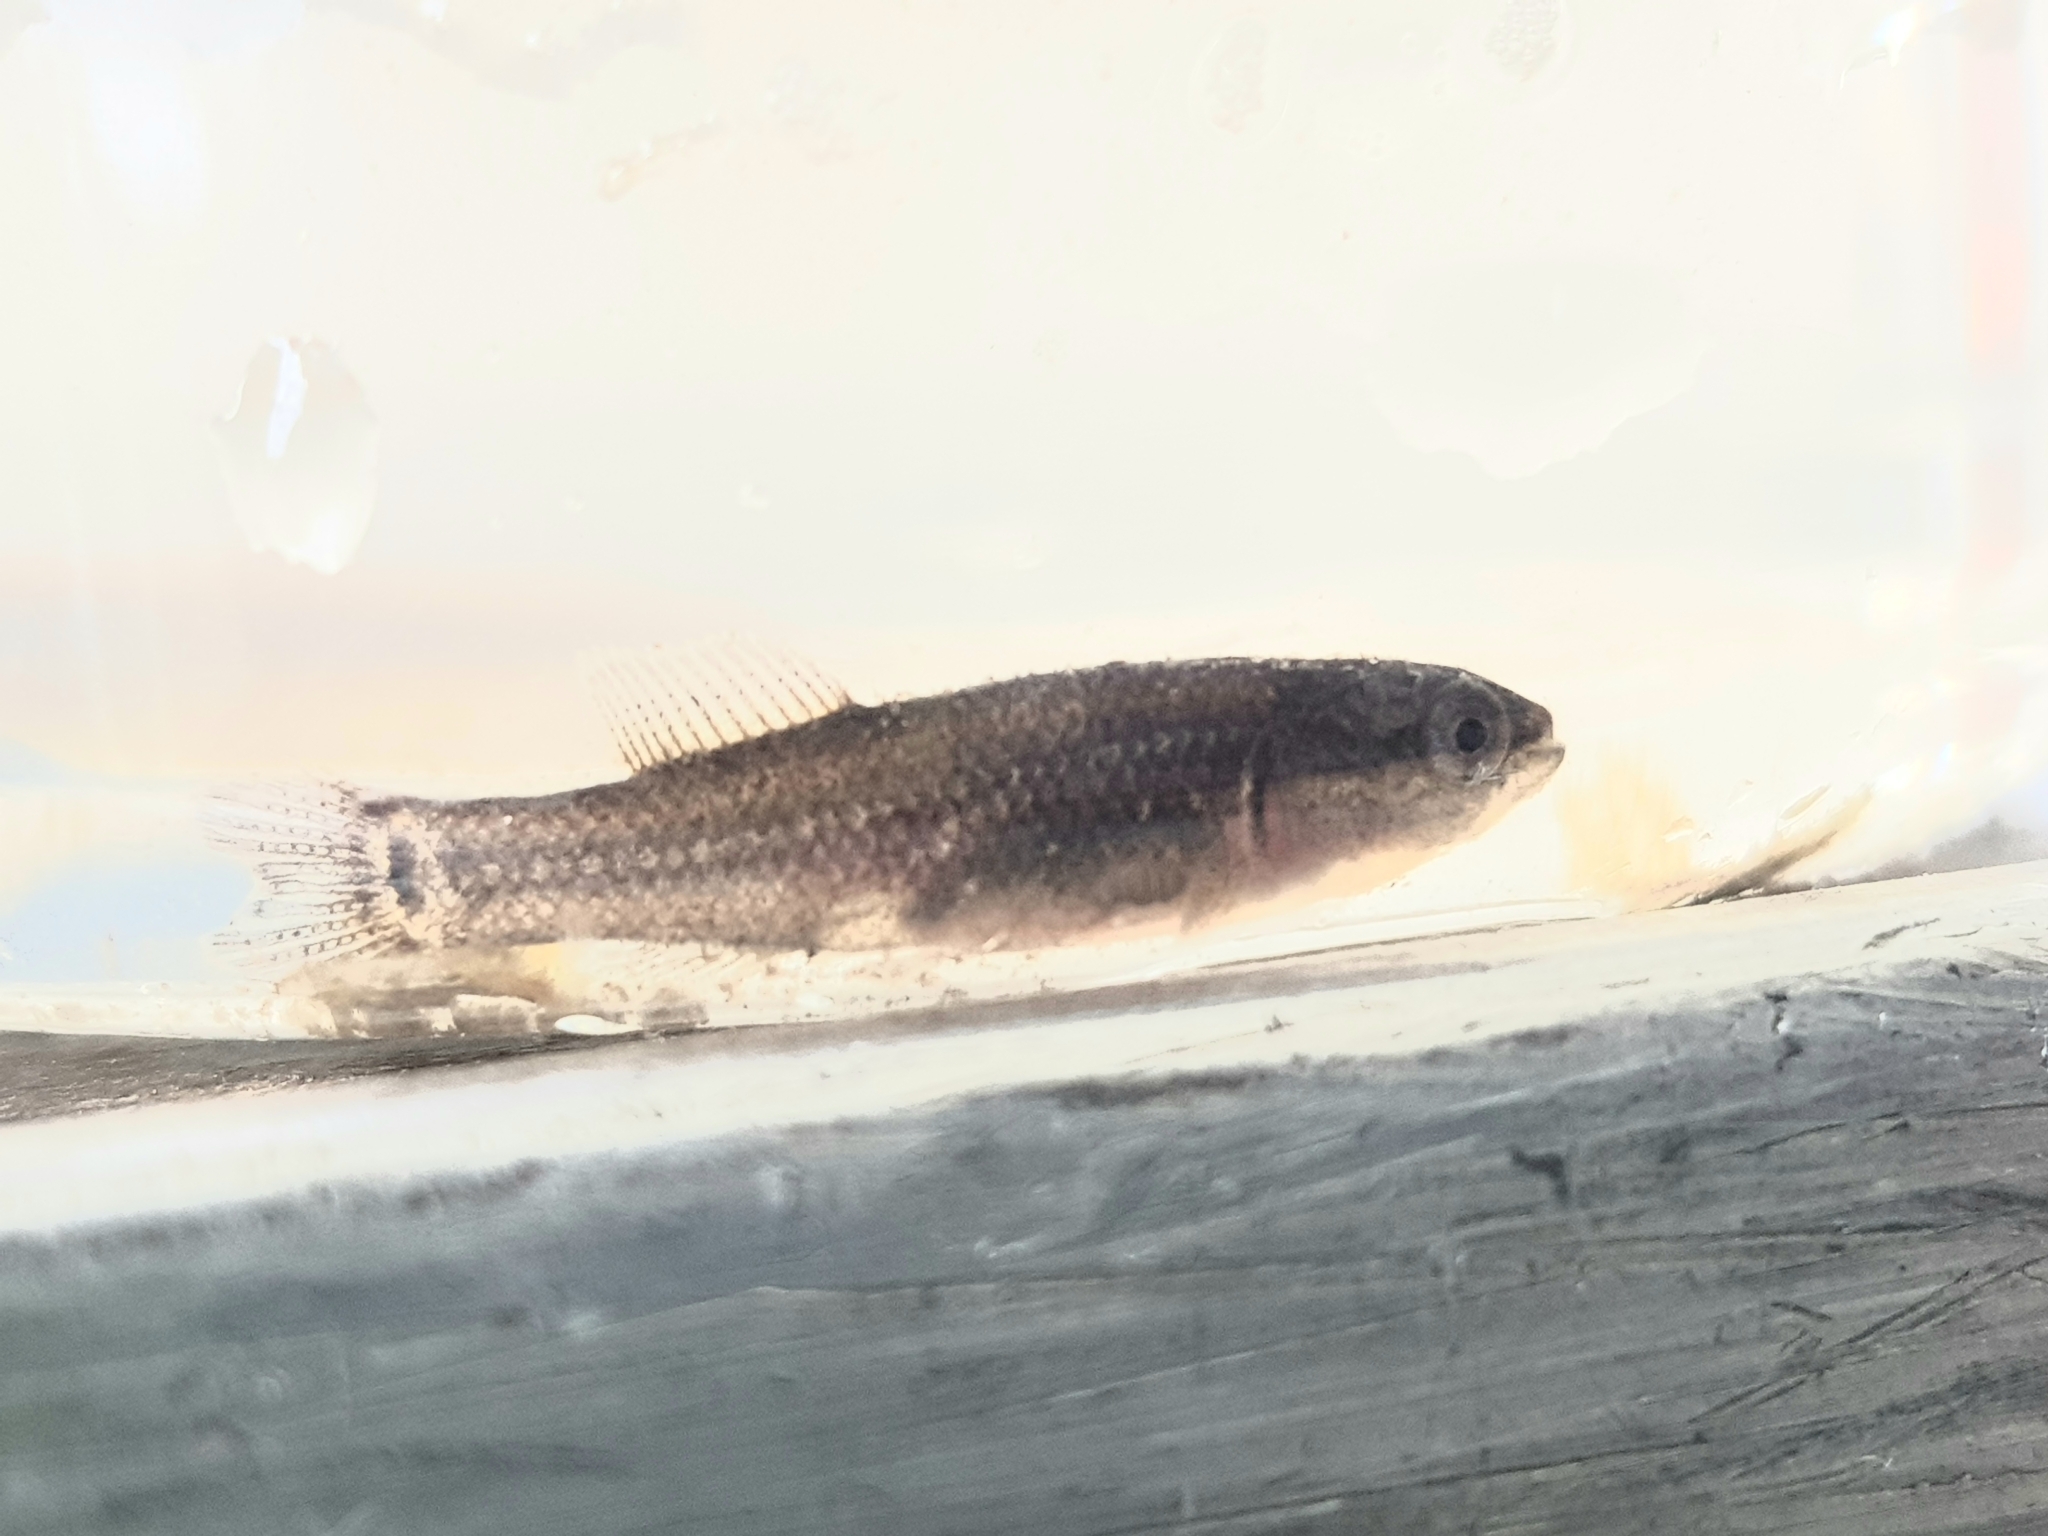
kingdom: Animalia
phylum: Chordata
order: Esociformes
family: Umbridae
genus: Umbra
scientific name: Umbra pygmaea
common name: Eastern mudminnow
